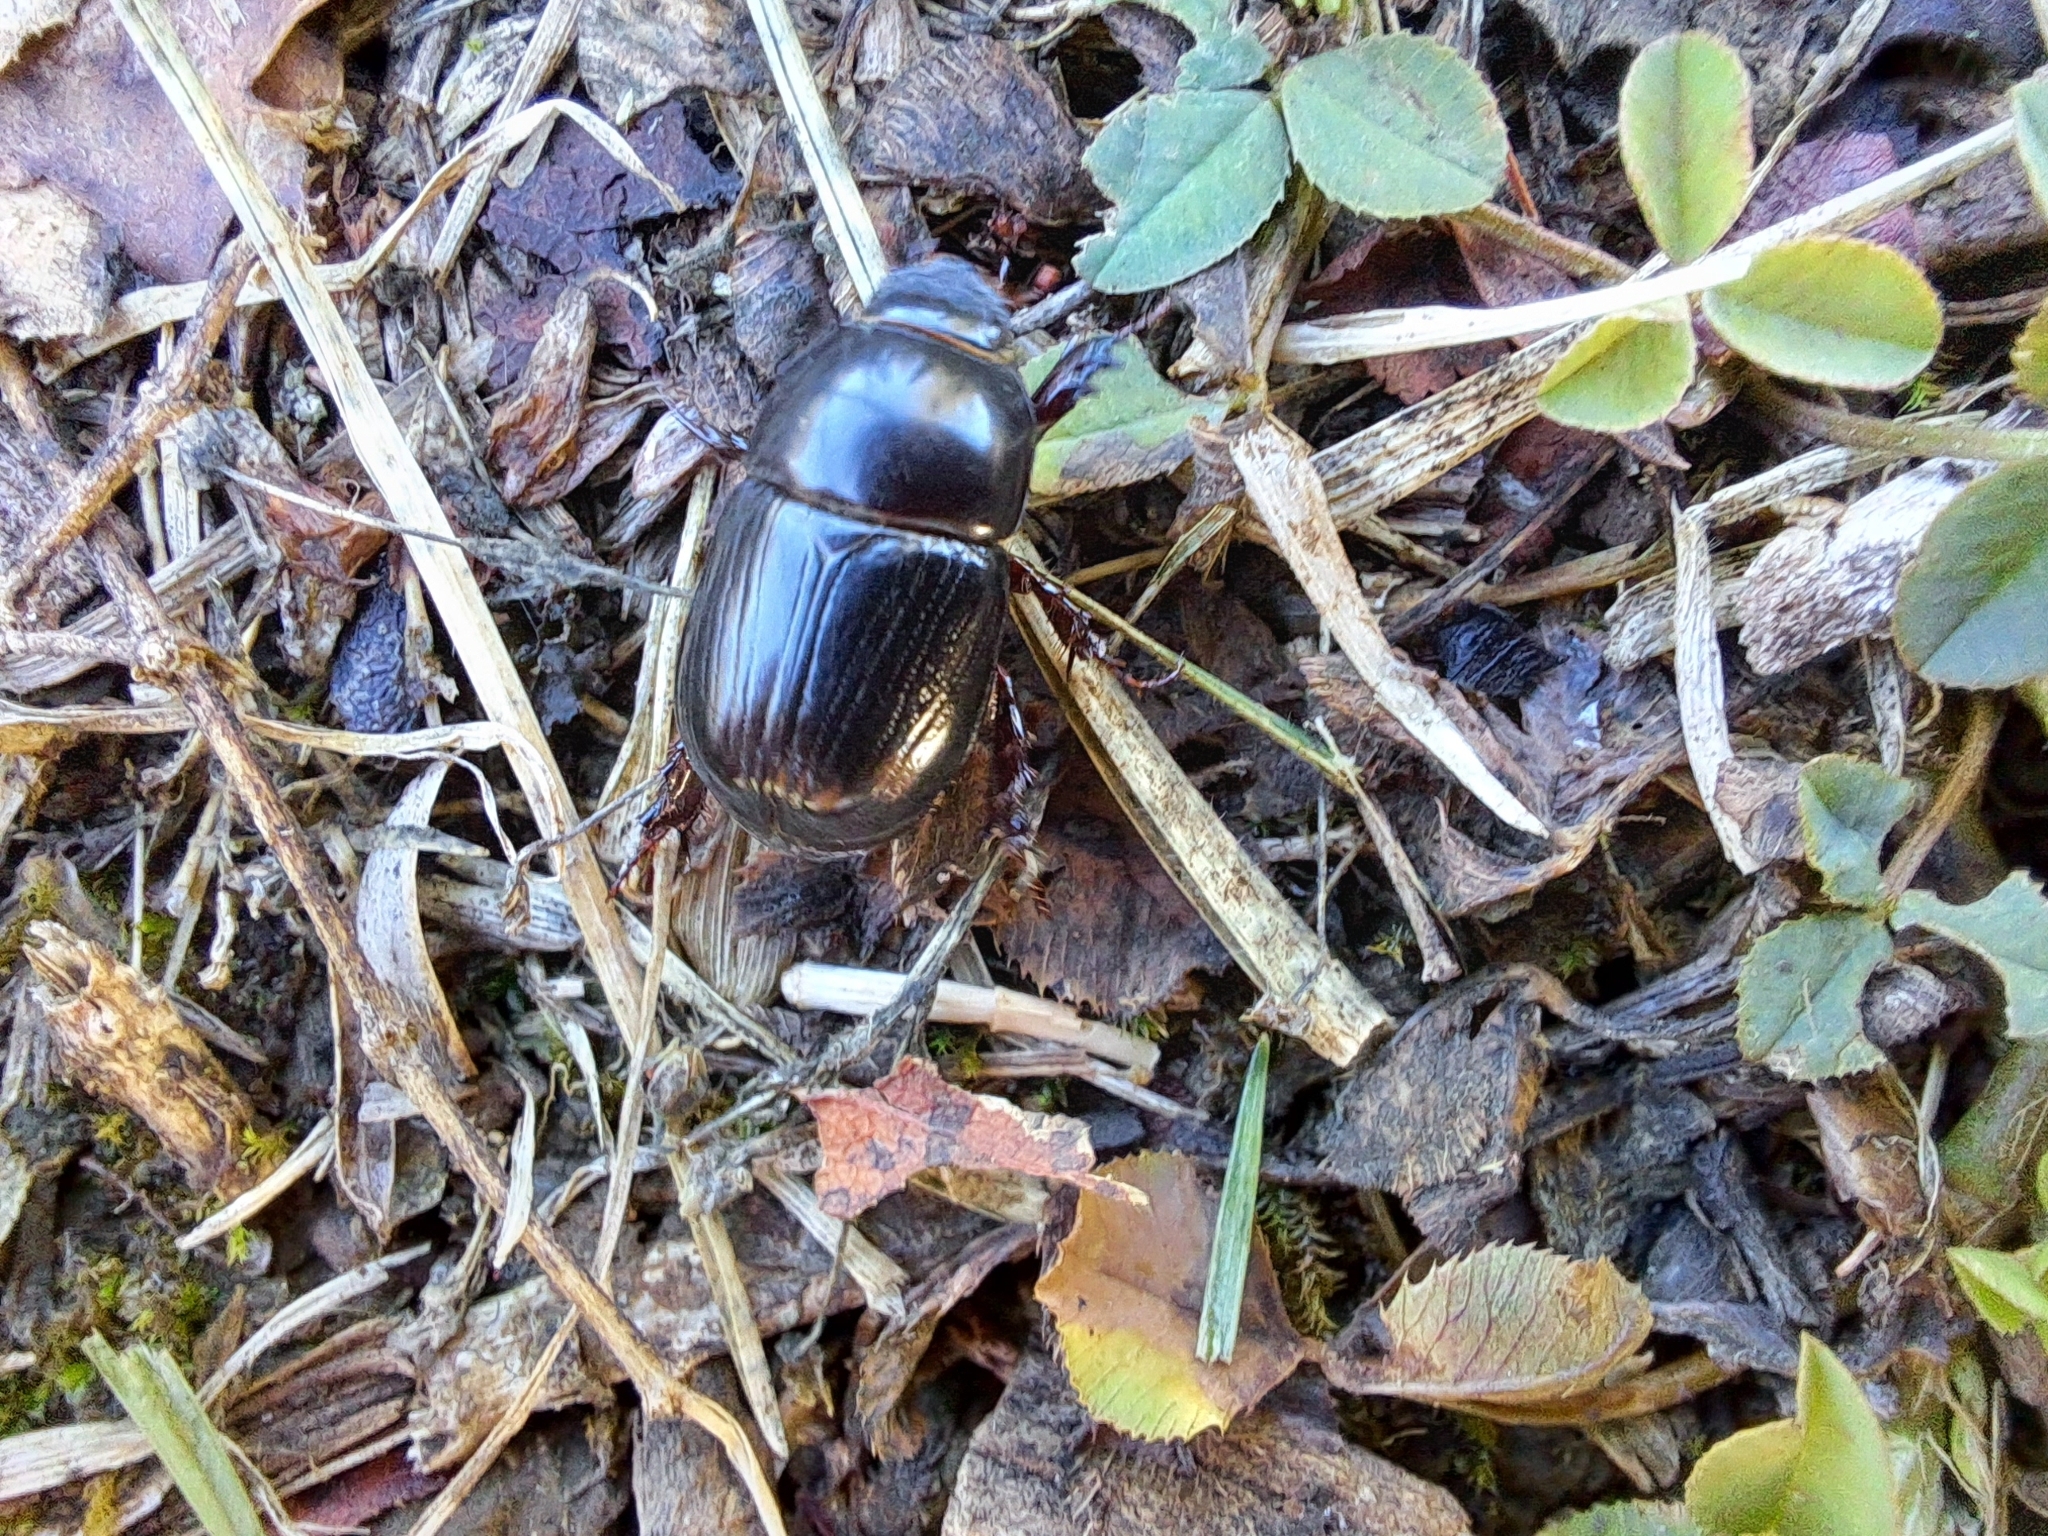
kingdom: Animalia
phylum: Arthropoda
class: Insecta
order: Coleoptera
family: Scarabaeidae
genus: Heteronychus
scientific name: Heteronychus arator
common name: African black beetle
